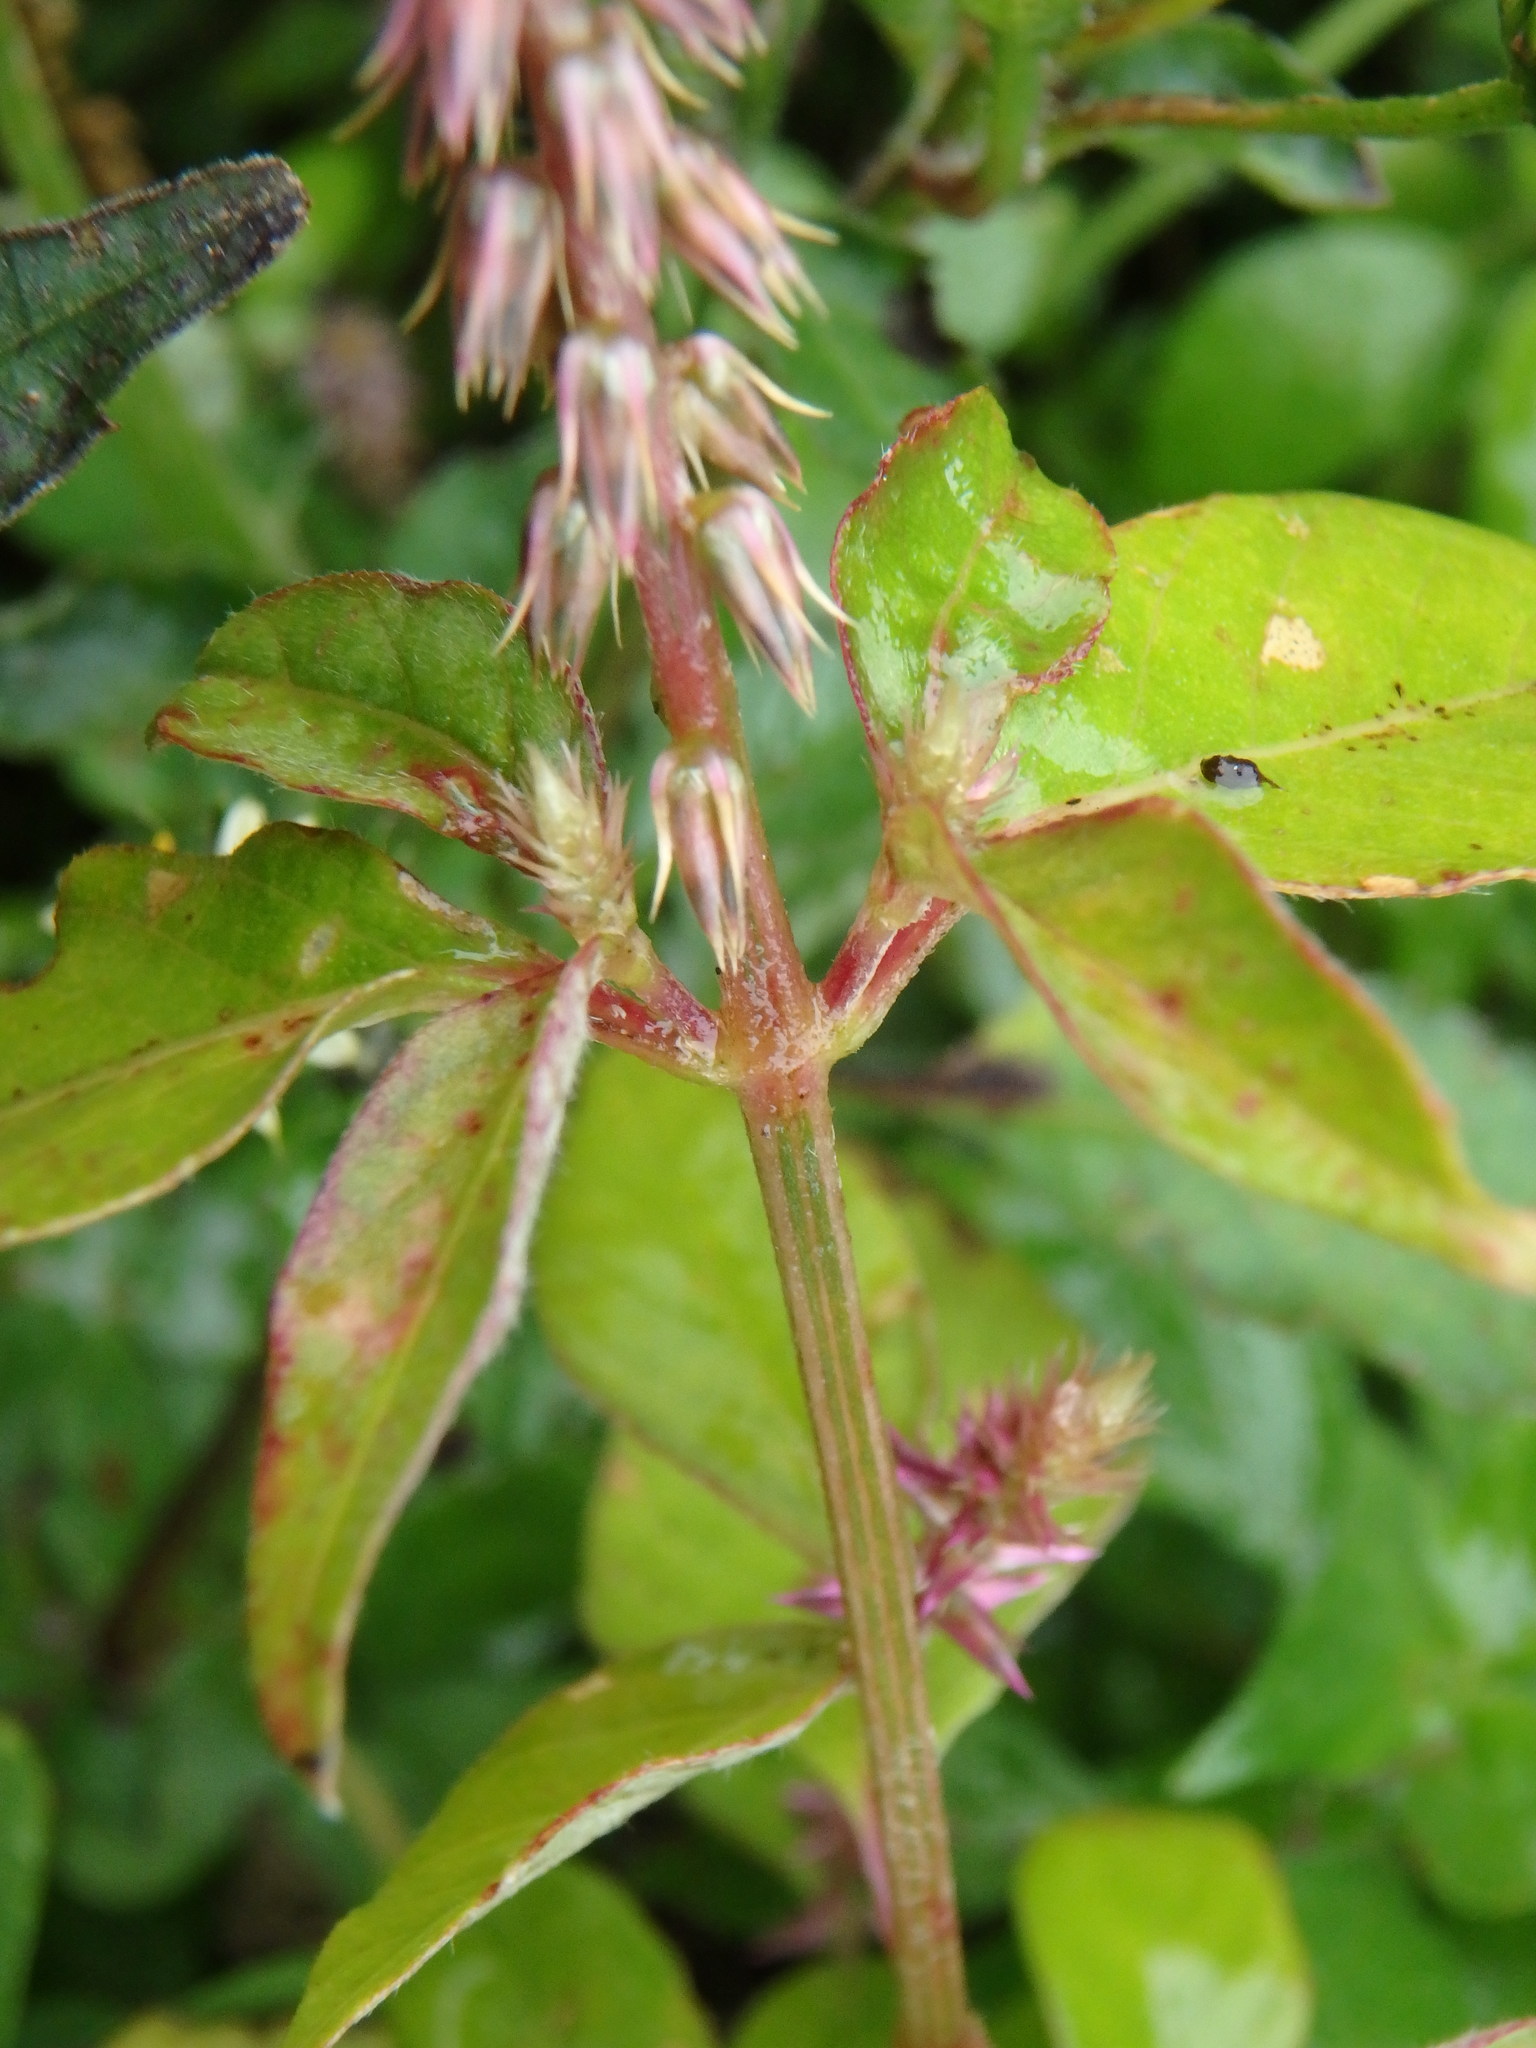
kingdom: Plantae
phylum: Tracheophyta
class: Magnoliopsida
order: Caryophyllales
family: Amaranthaceae
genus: Achyranthes
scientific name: Achyranthes aspera
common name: Devil's horsewhip
